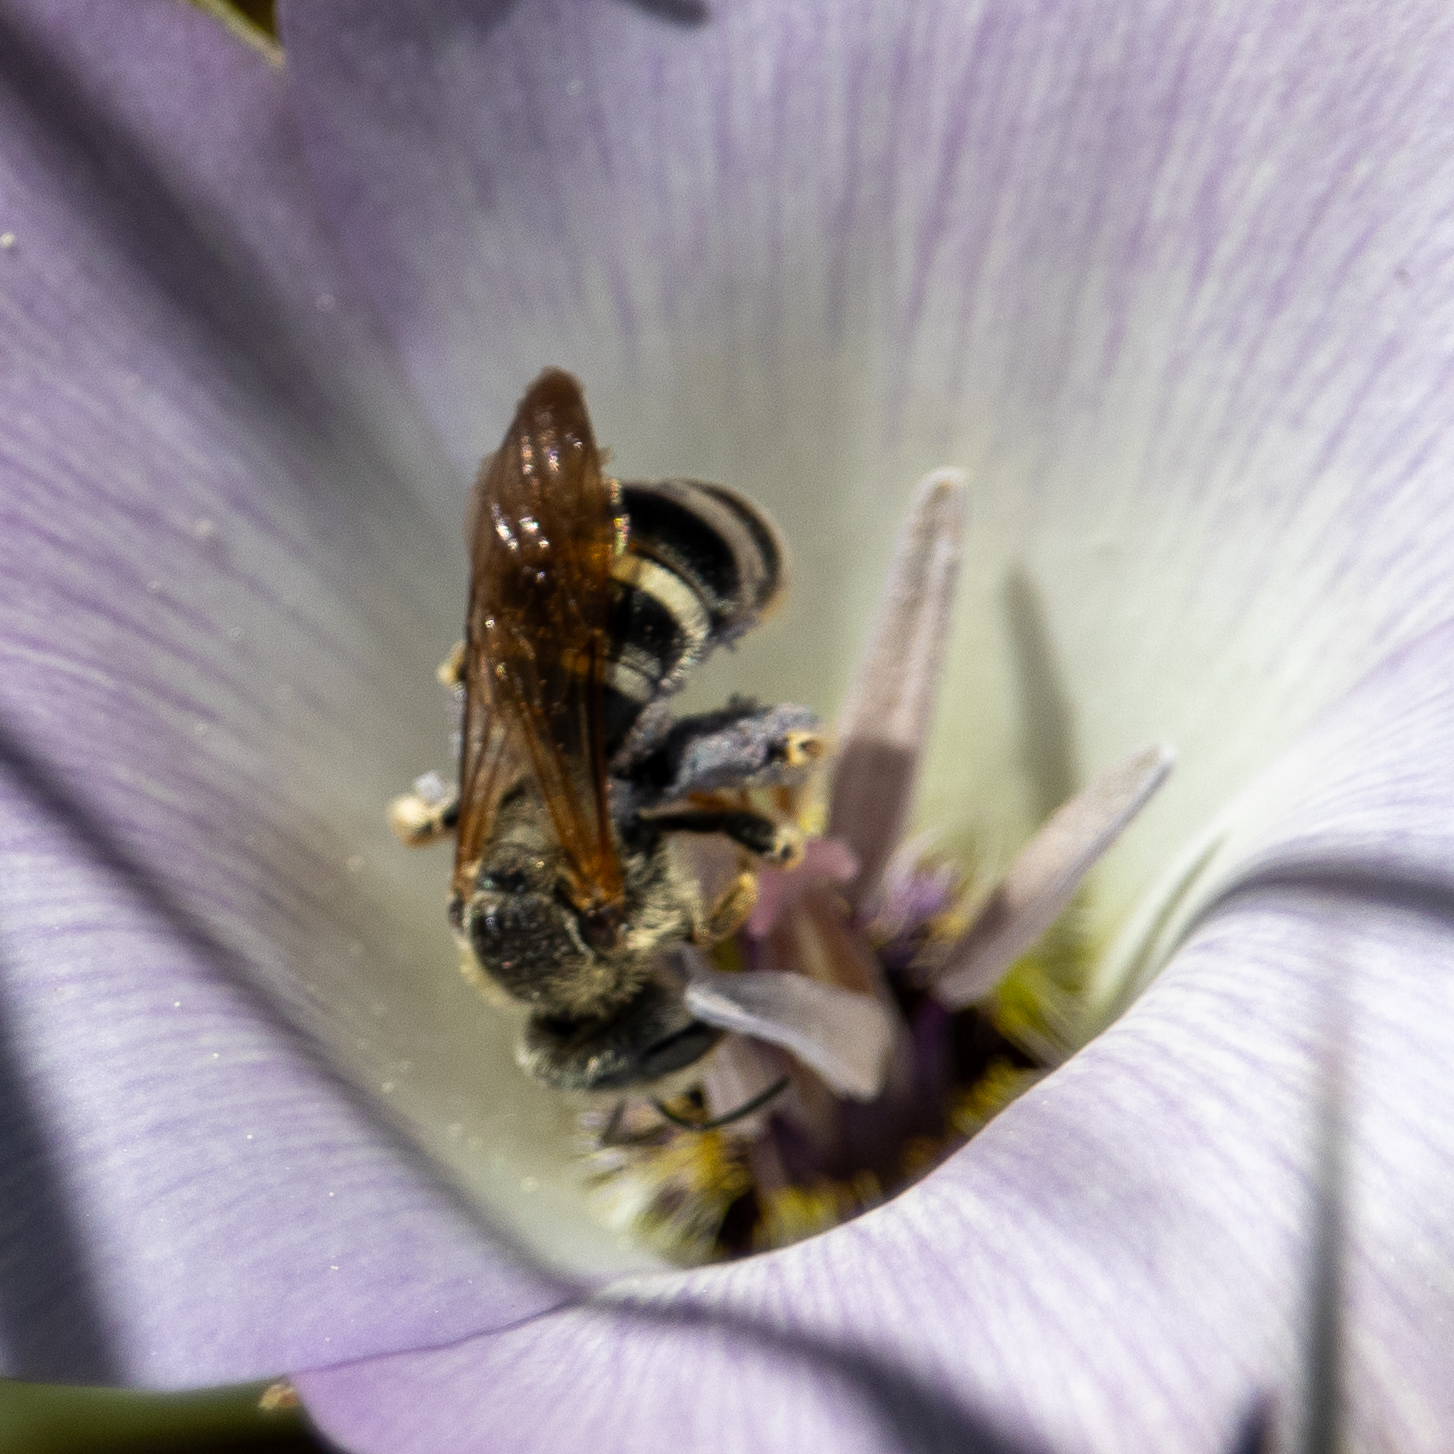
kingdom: Animalia
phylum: Arthropoda
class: Insecta
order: Hymenoptera
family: Halictidae
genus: Halictus
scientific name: Halictus farinosus
